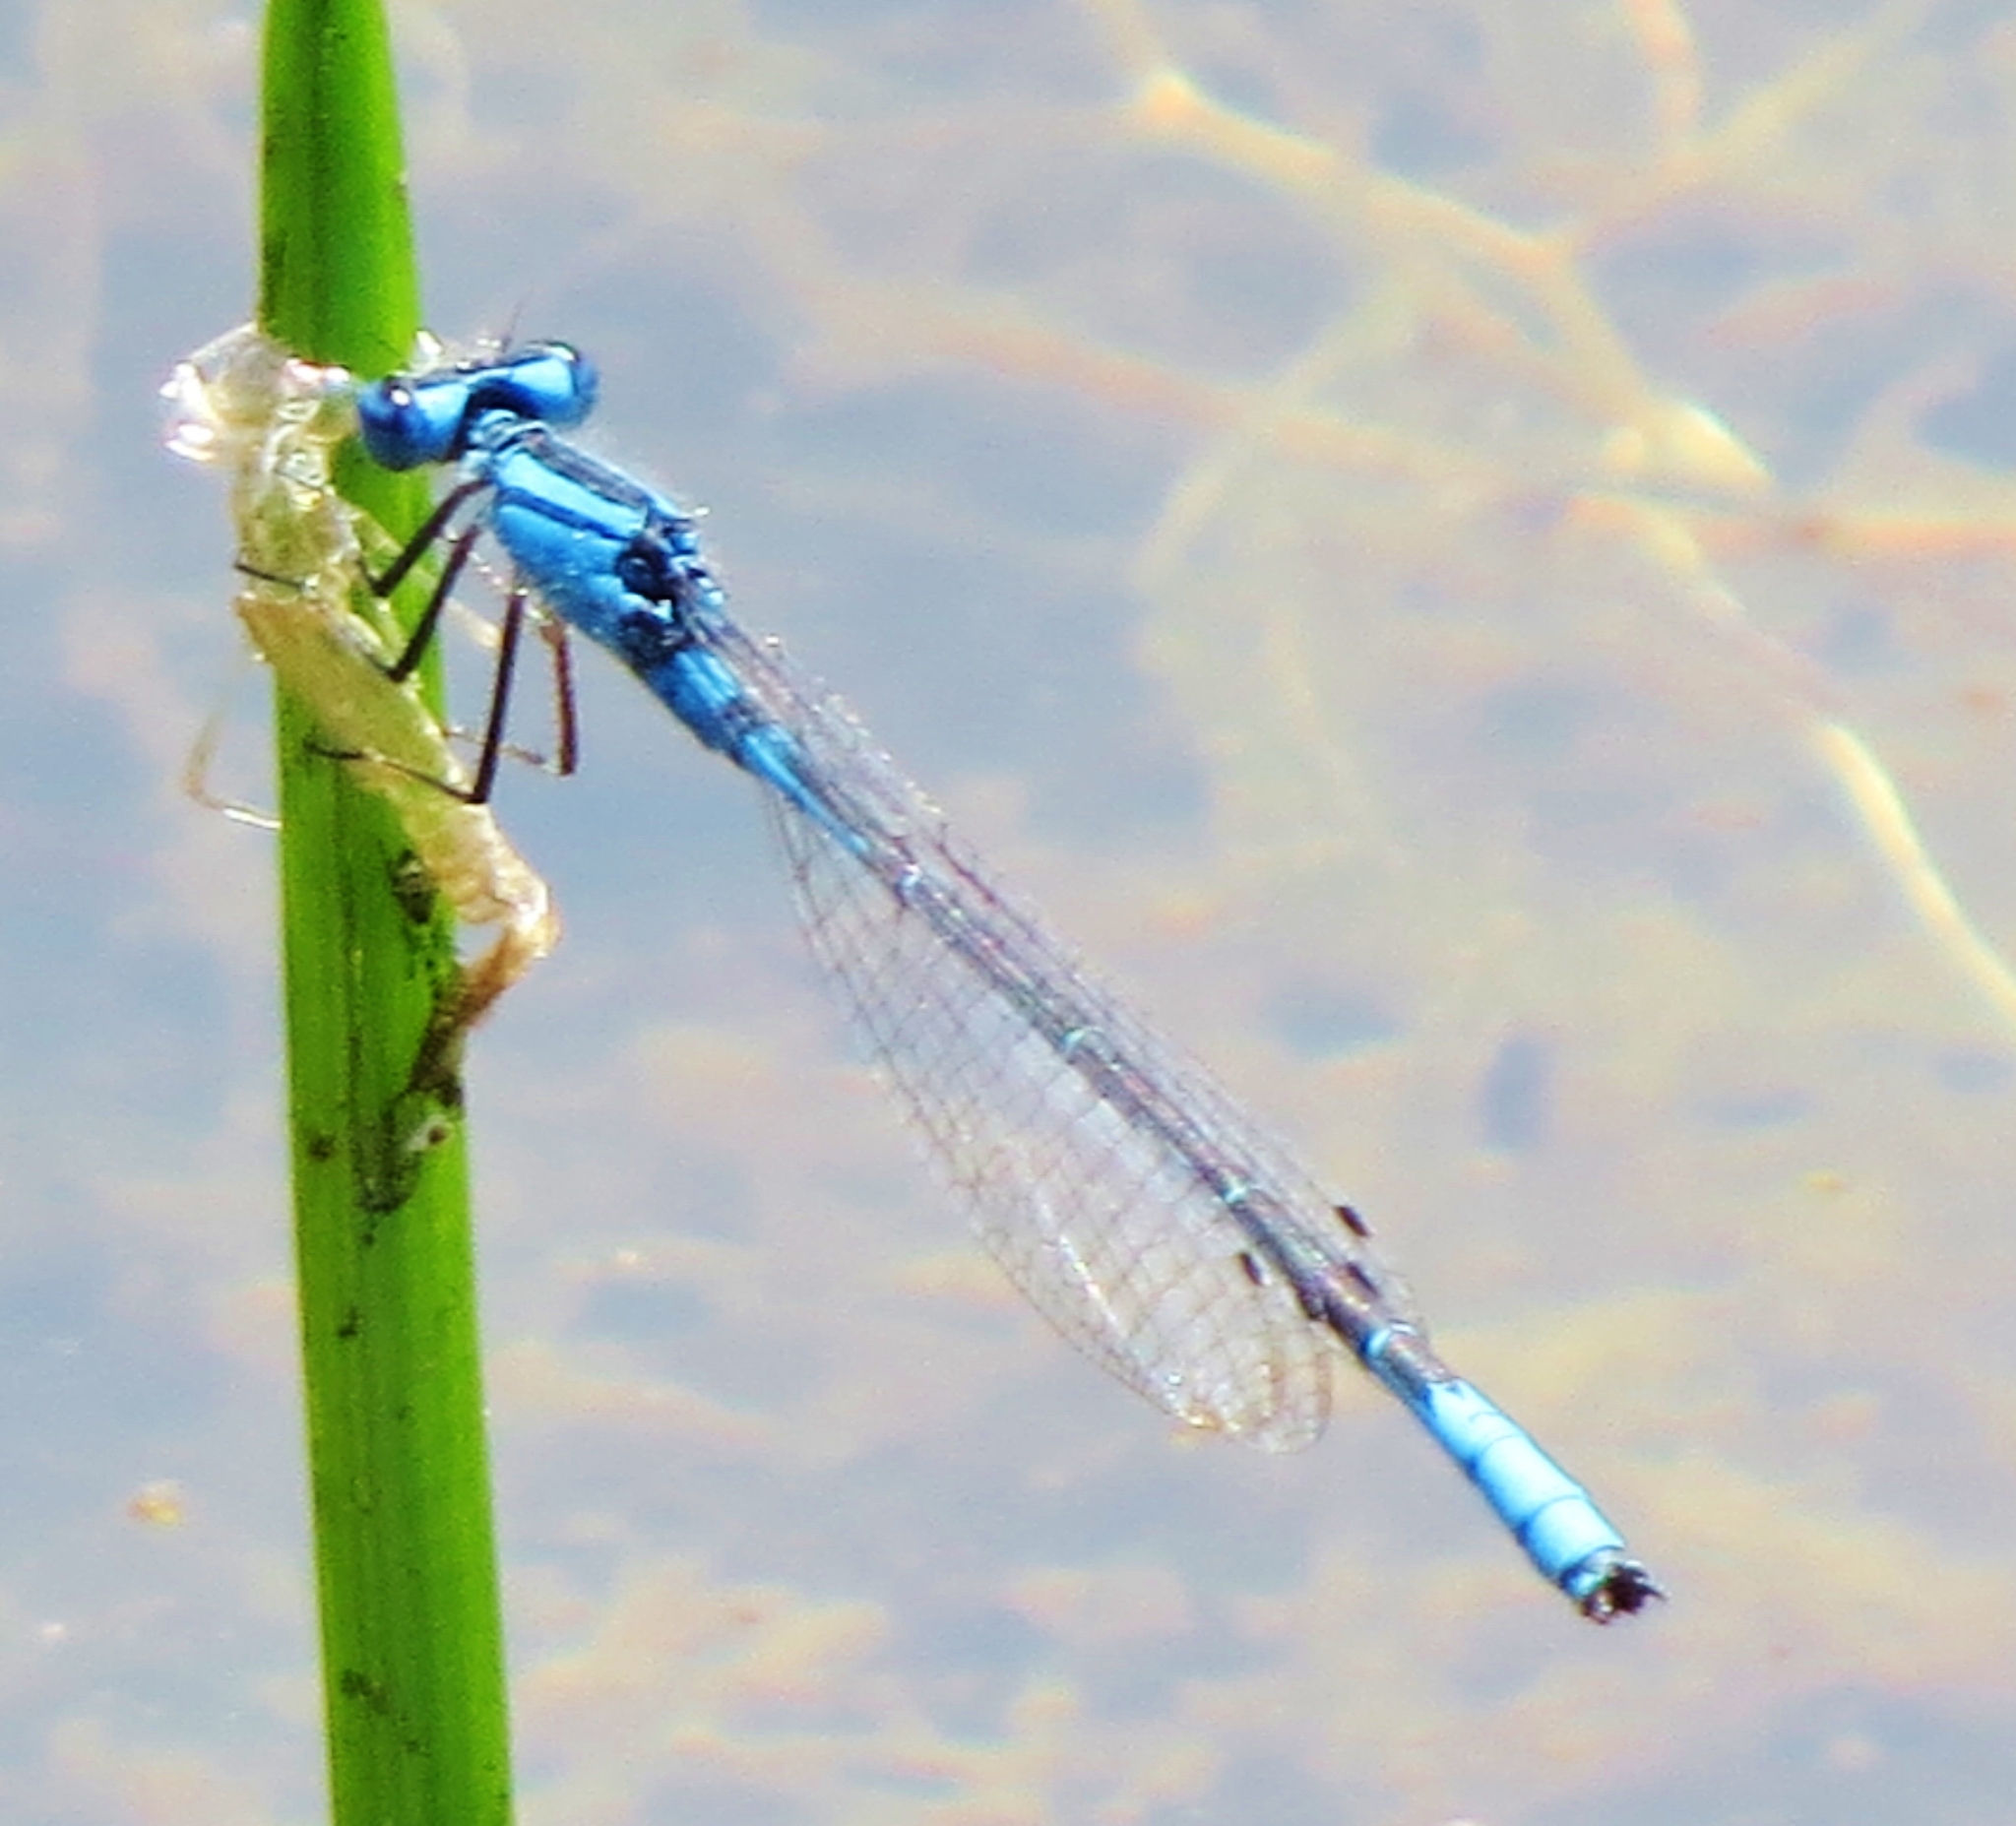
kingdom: Animalia
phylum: Arthropoda
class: Insecta
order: Odonata
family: Coenagrionidae
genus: Enallagma
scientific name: Enallagma aspersum
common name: Azure bluet
